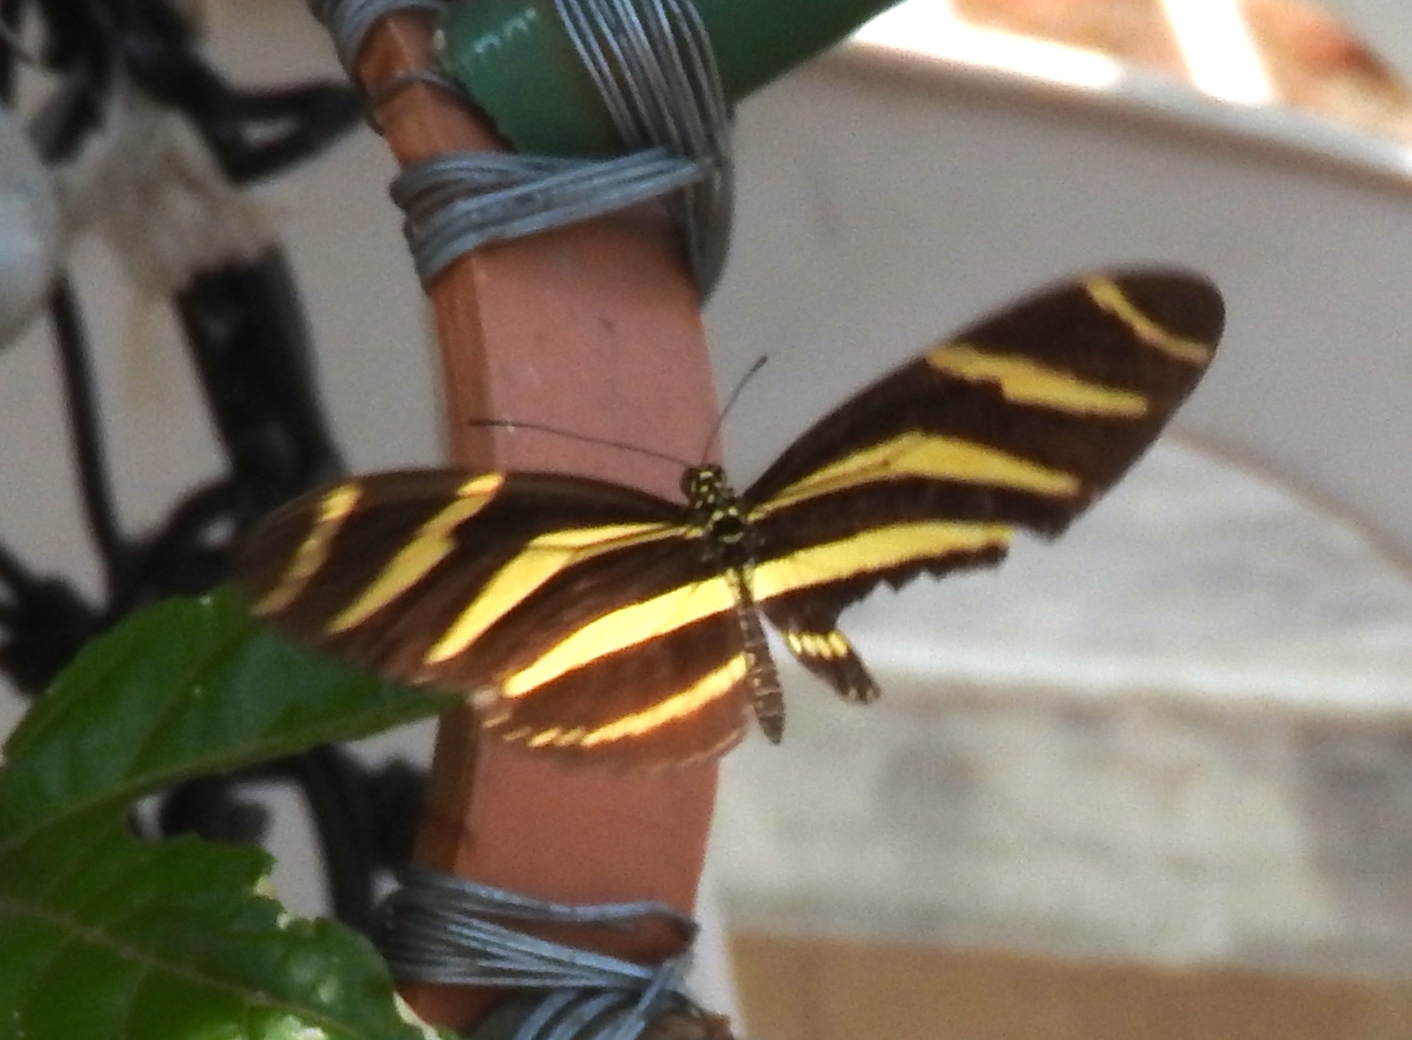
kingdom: Animalia
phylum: Arthropoda
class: Insecta
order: Lepidoptera
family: Nymphalidae
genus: Heliconius
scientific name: Heliconius charithonia
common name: Zebra long wing
